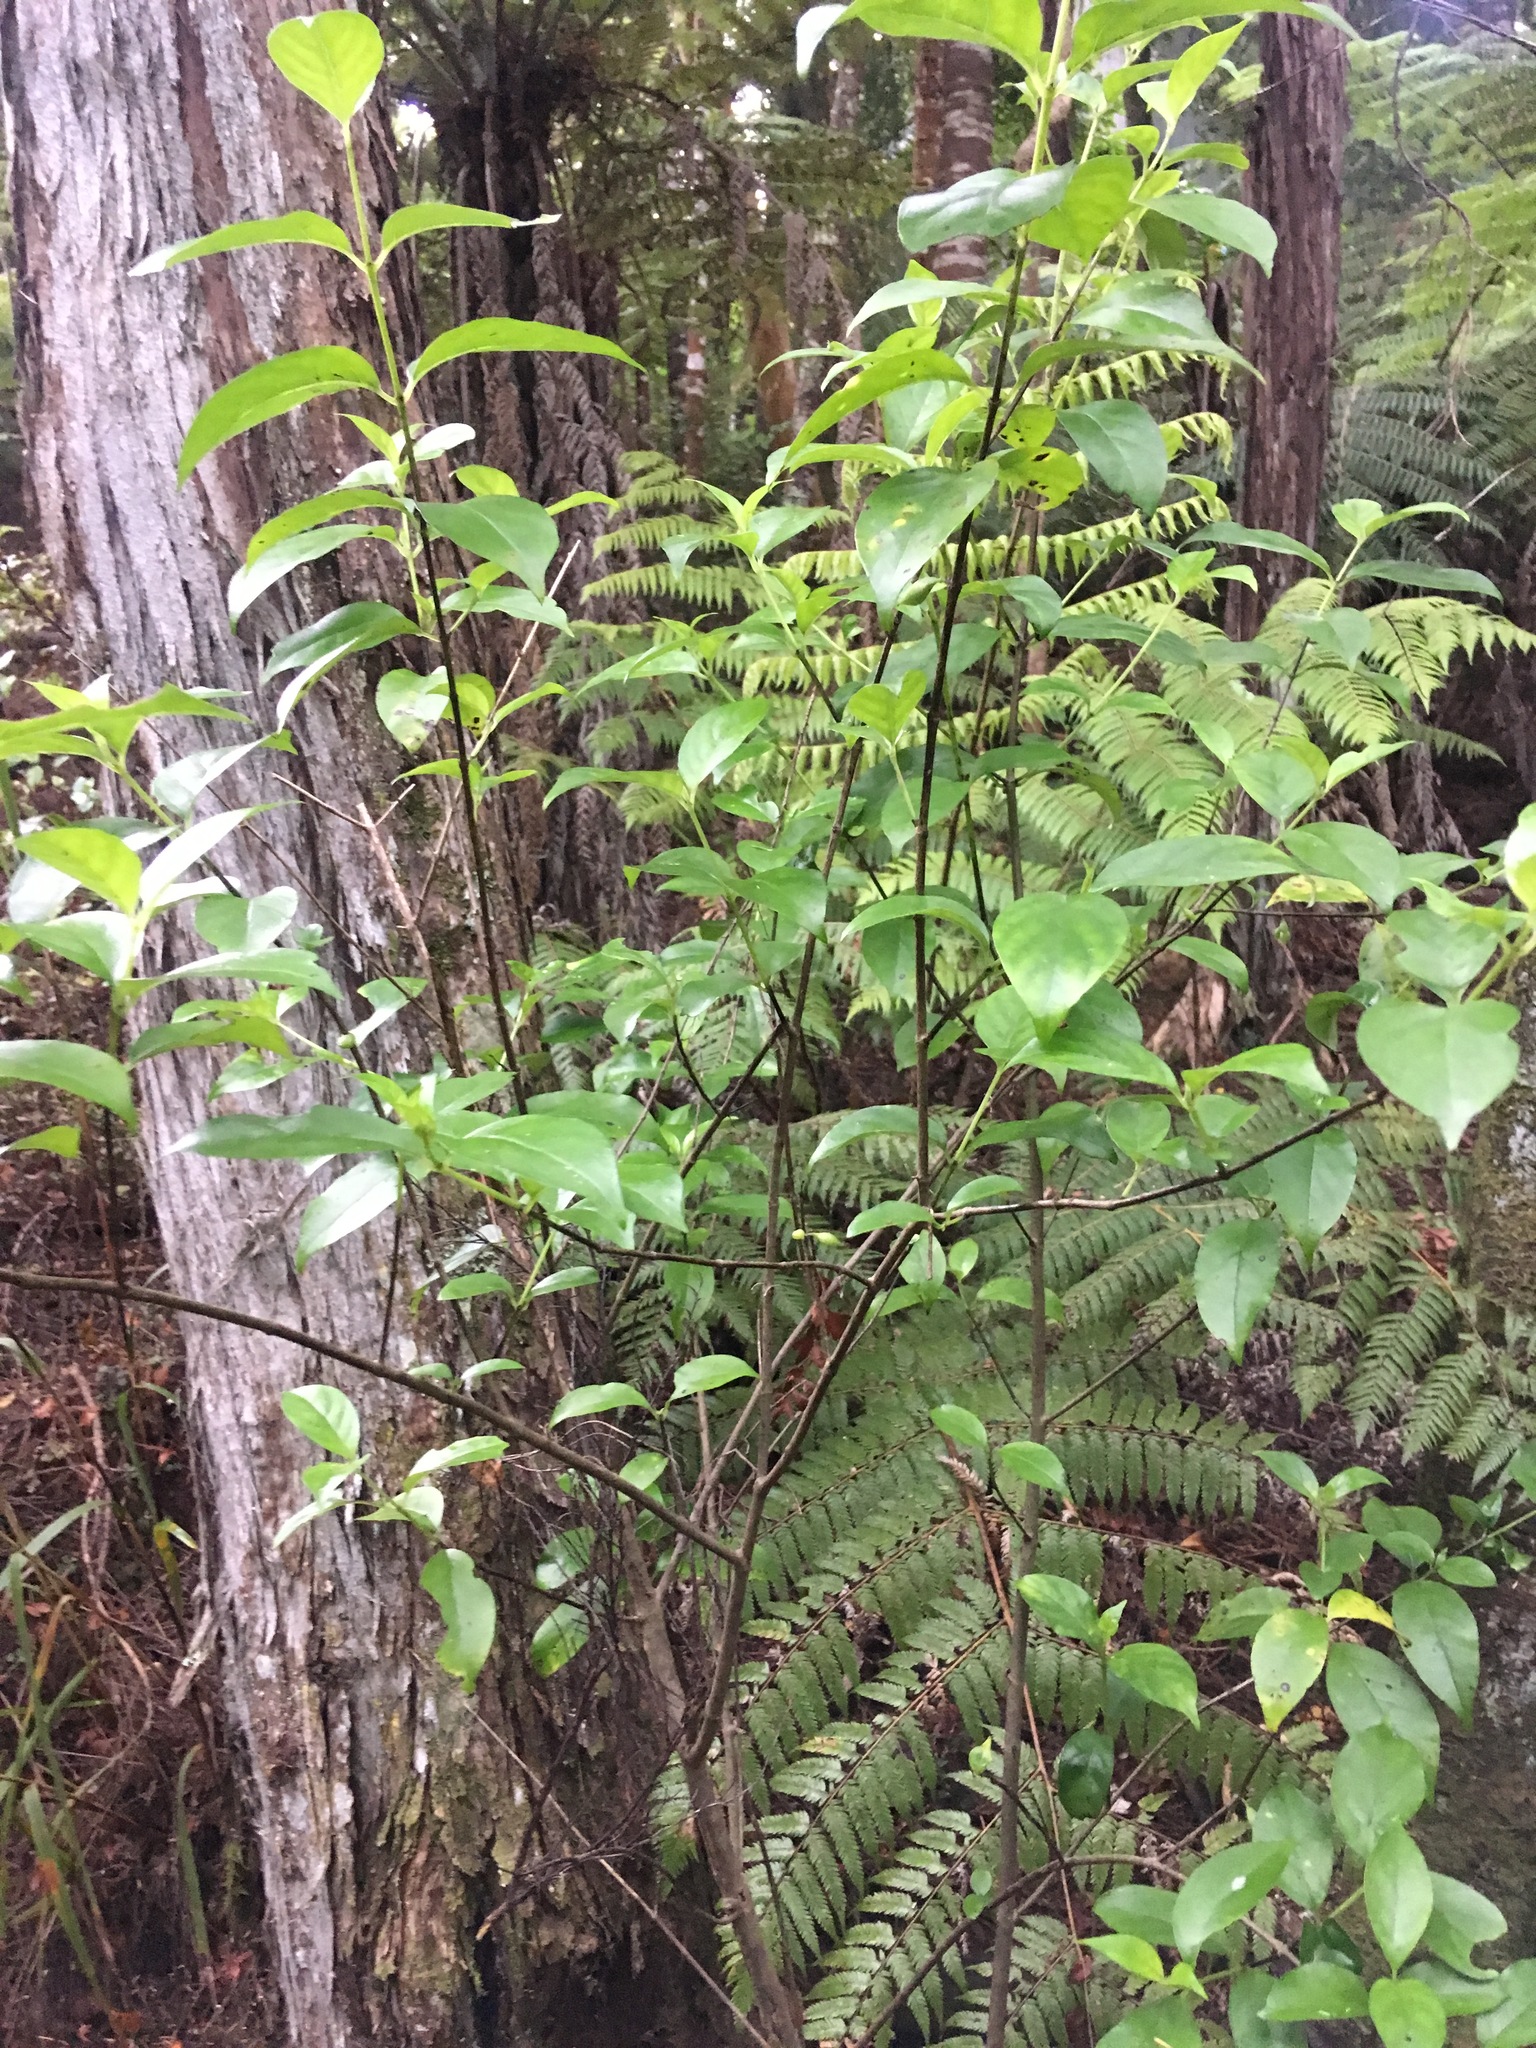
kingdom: Plantae
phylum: Tracheophyta
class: Magnoliopsida
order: Gentianales
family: Loganiaceae
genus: Geniostoma
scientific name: Geniostoma ligustrifolium
